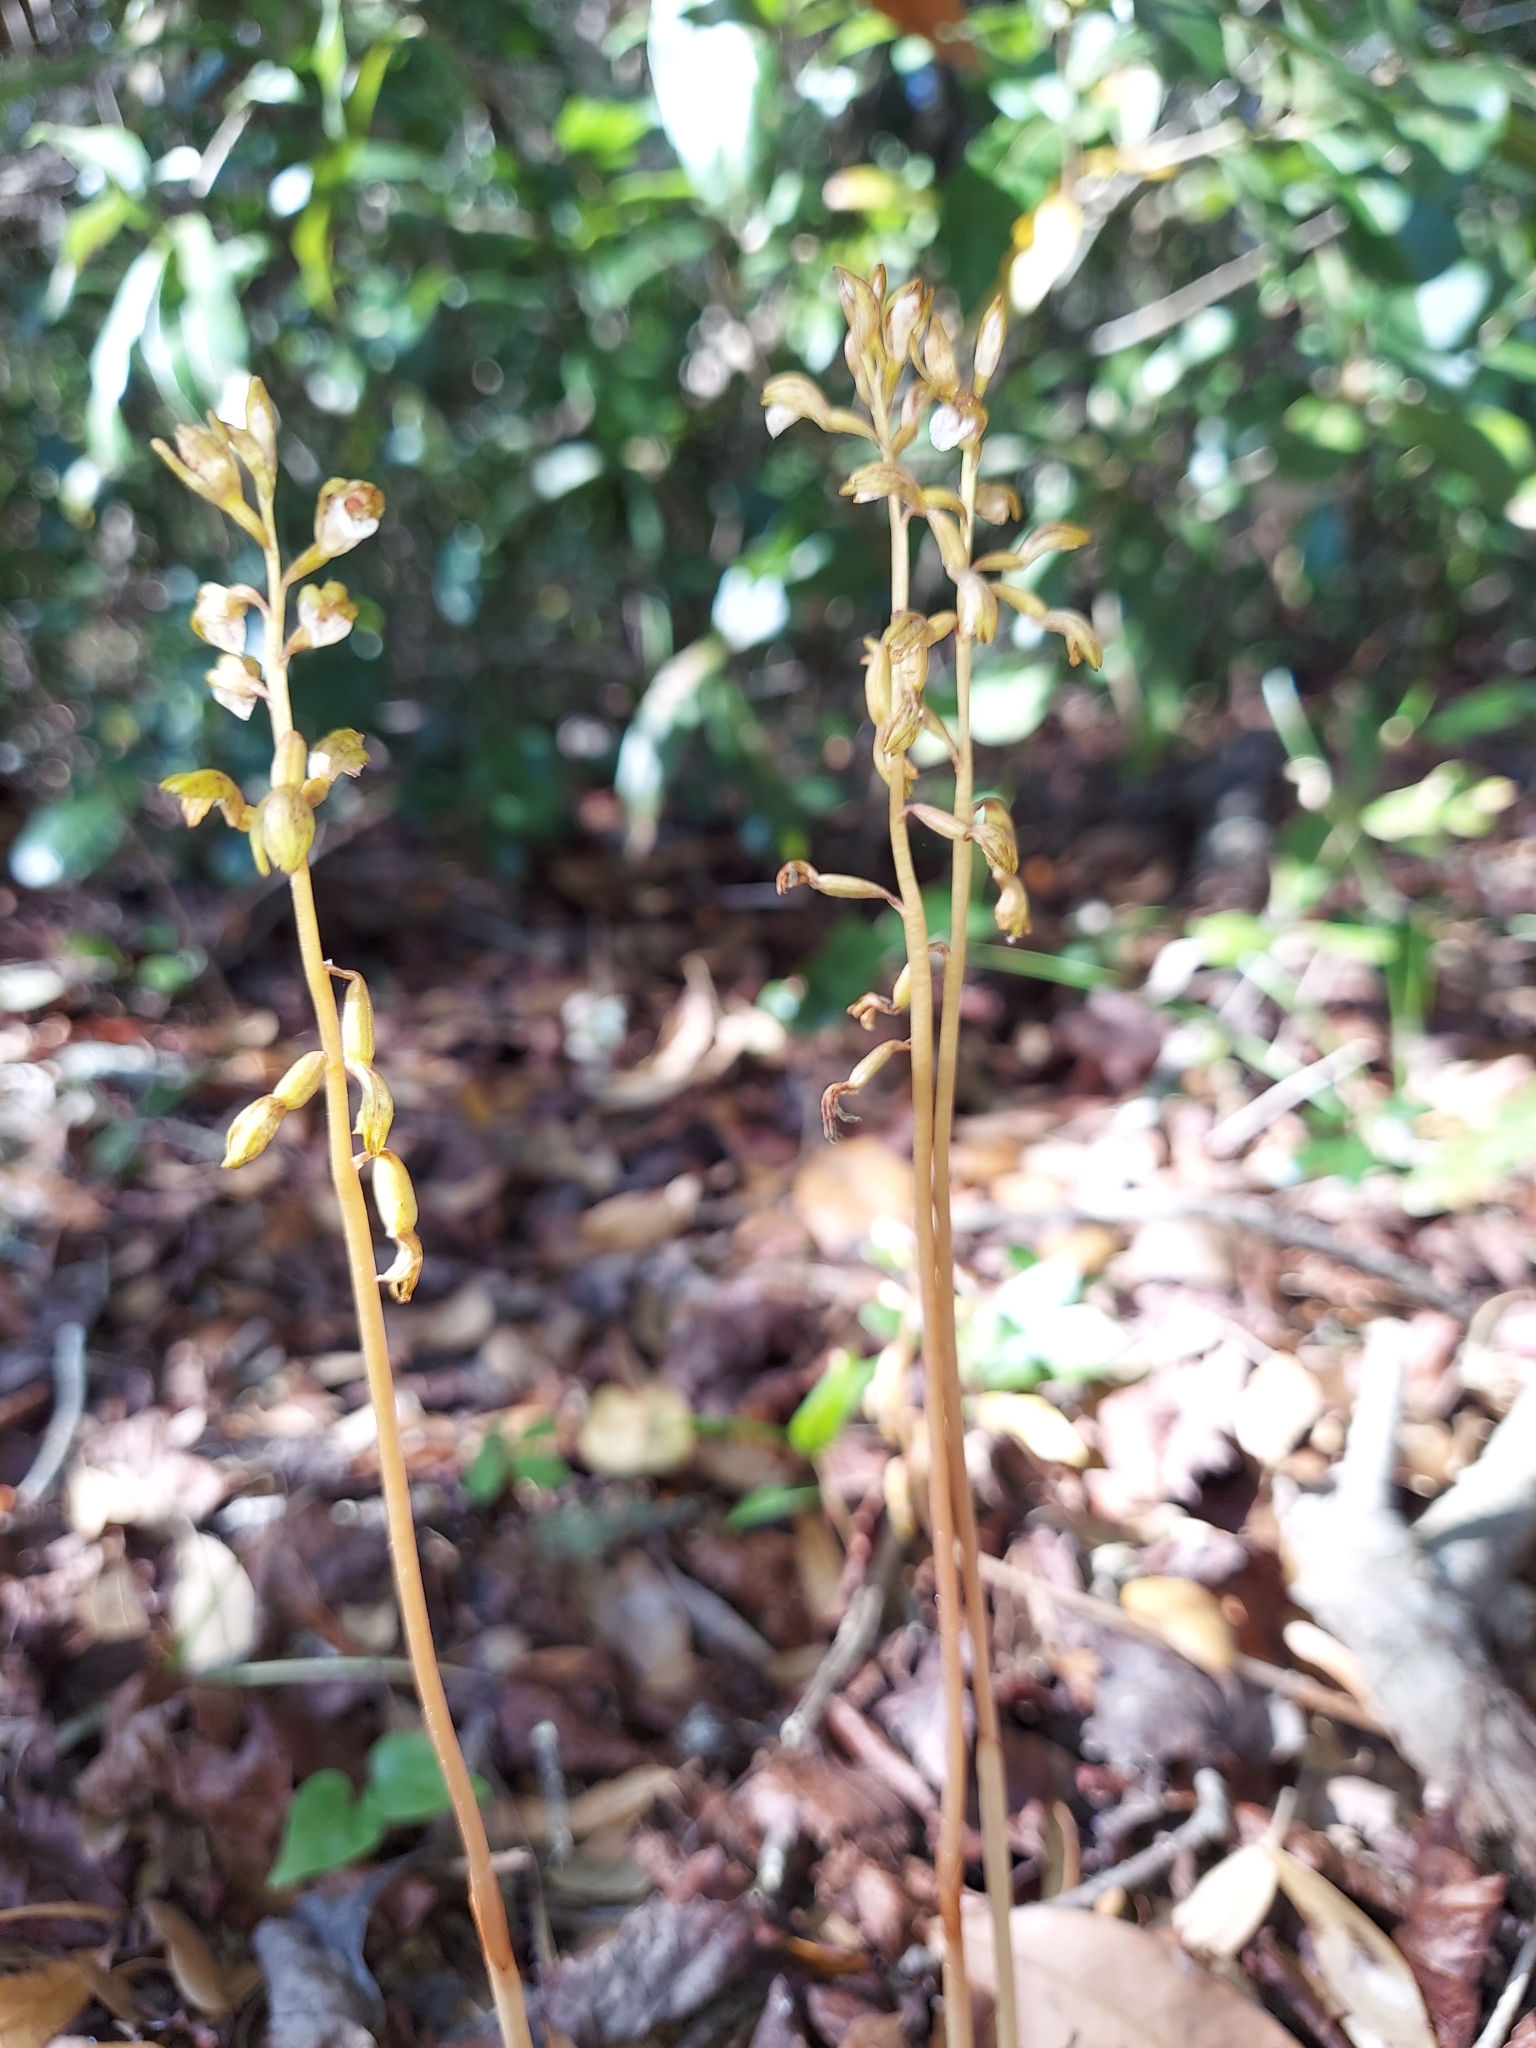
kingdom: Plantae
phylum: Tracheophyta
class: Liliopsida
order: Asparagales
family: Orchidaceae
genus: Corallorhiza
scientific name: Corallorhiza wisteriana
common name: Spring coralroot
